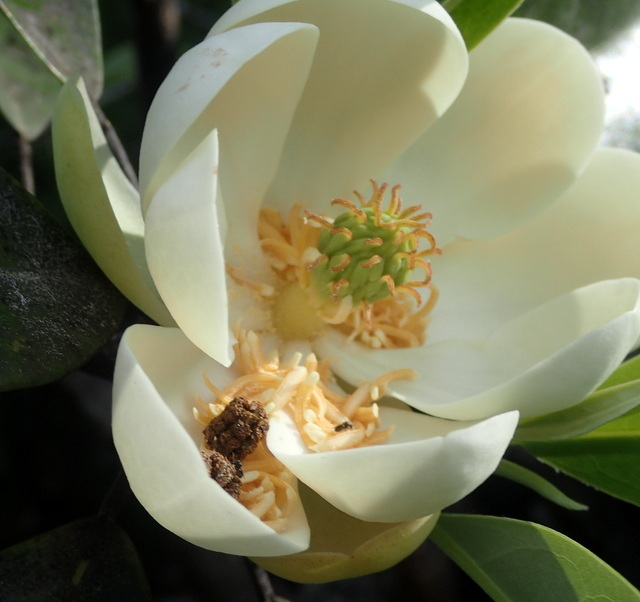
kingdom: Plantae
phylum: Tracheophyta
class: Magnoliopsida
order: Magnoliales
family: Magnoliaceae
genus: Magnolia
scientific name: Magnolia virginiana
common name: Swamp bay
